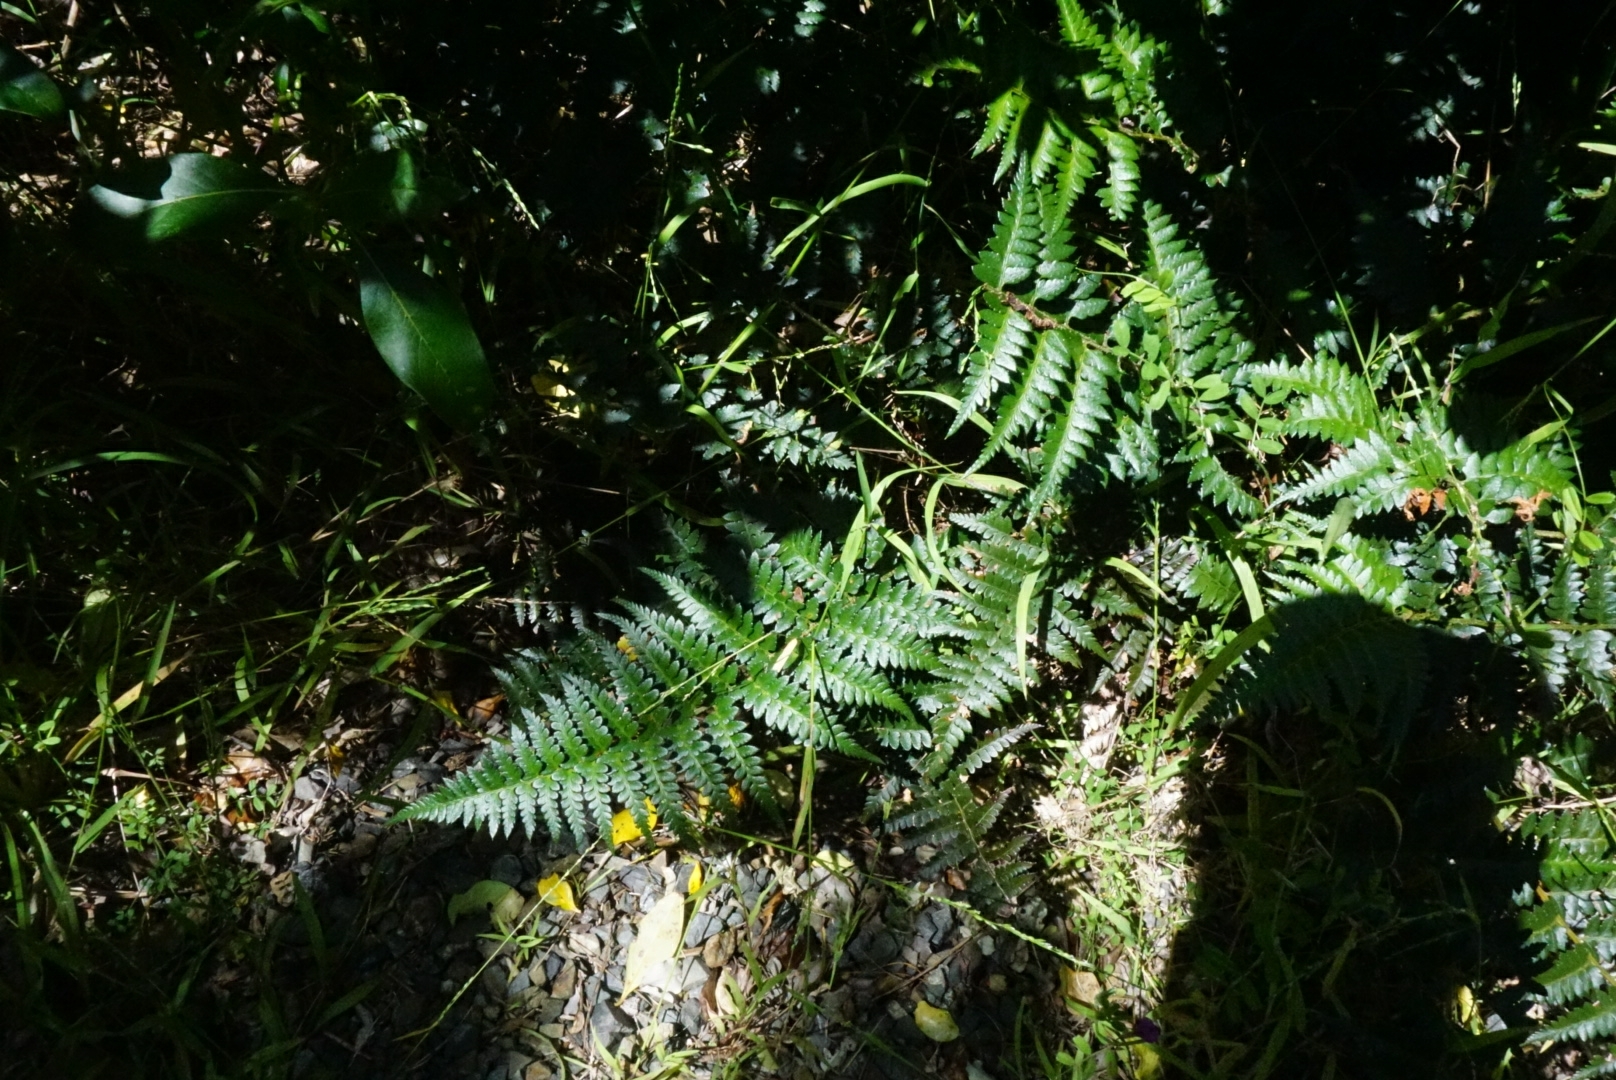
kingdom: Plantae
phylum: Tracheophyta
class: Polypodiopsida
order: Polypodiales
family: Dryopteridaceae
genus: Polystichum
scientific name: Polystichum oculatum
